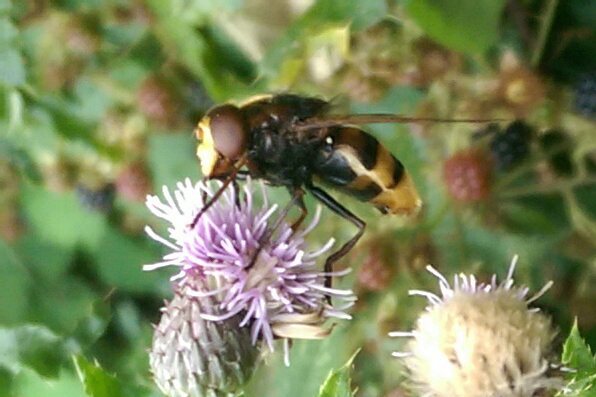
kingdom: Animalia
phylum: Arthropoda
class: Insecta
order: Diptera
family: Syrphidae
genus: Volucella
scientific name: Volucella zonaria
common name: Hornet hoverfly
